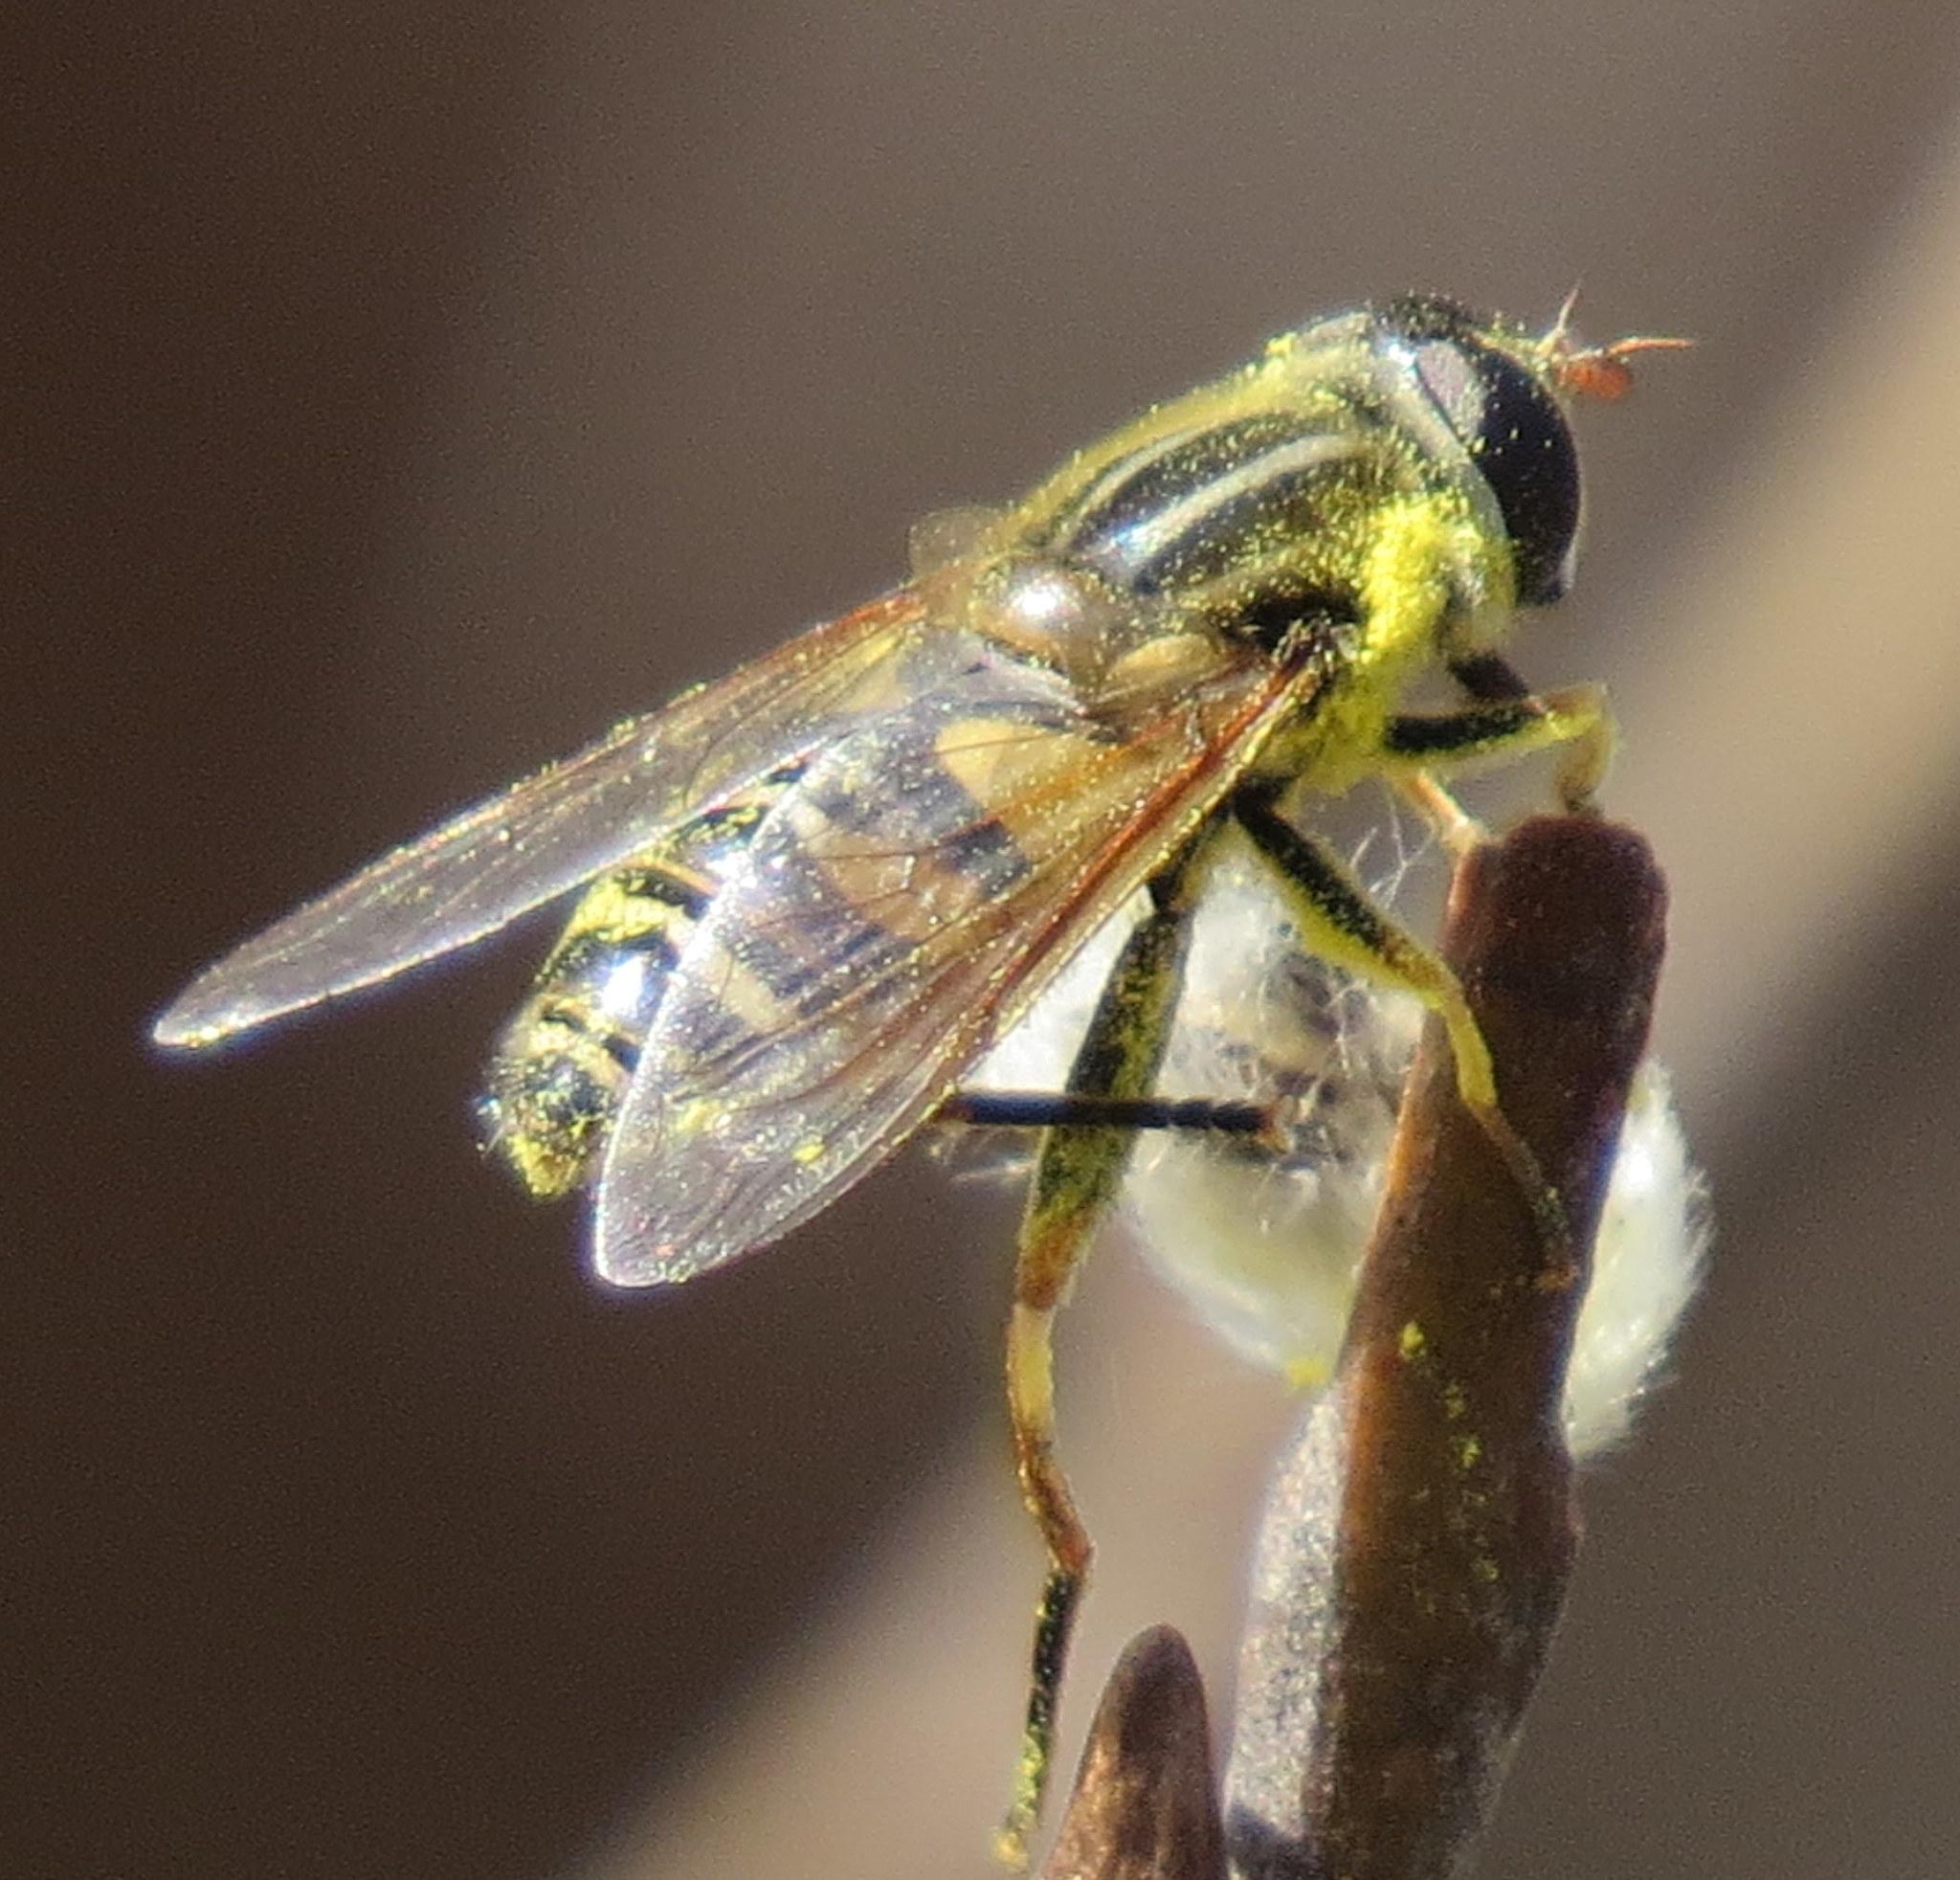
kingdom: Animalia
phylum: Arthropoda
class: Insecta
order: Diptera
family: Syrphidae
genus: Helophilus
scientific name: Helophilus fasciatus
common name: Narrow-headed marsh fly
